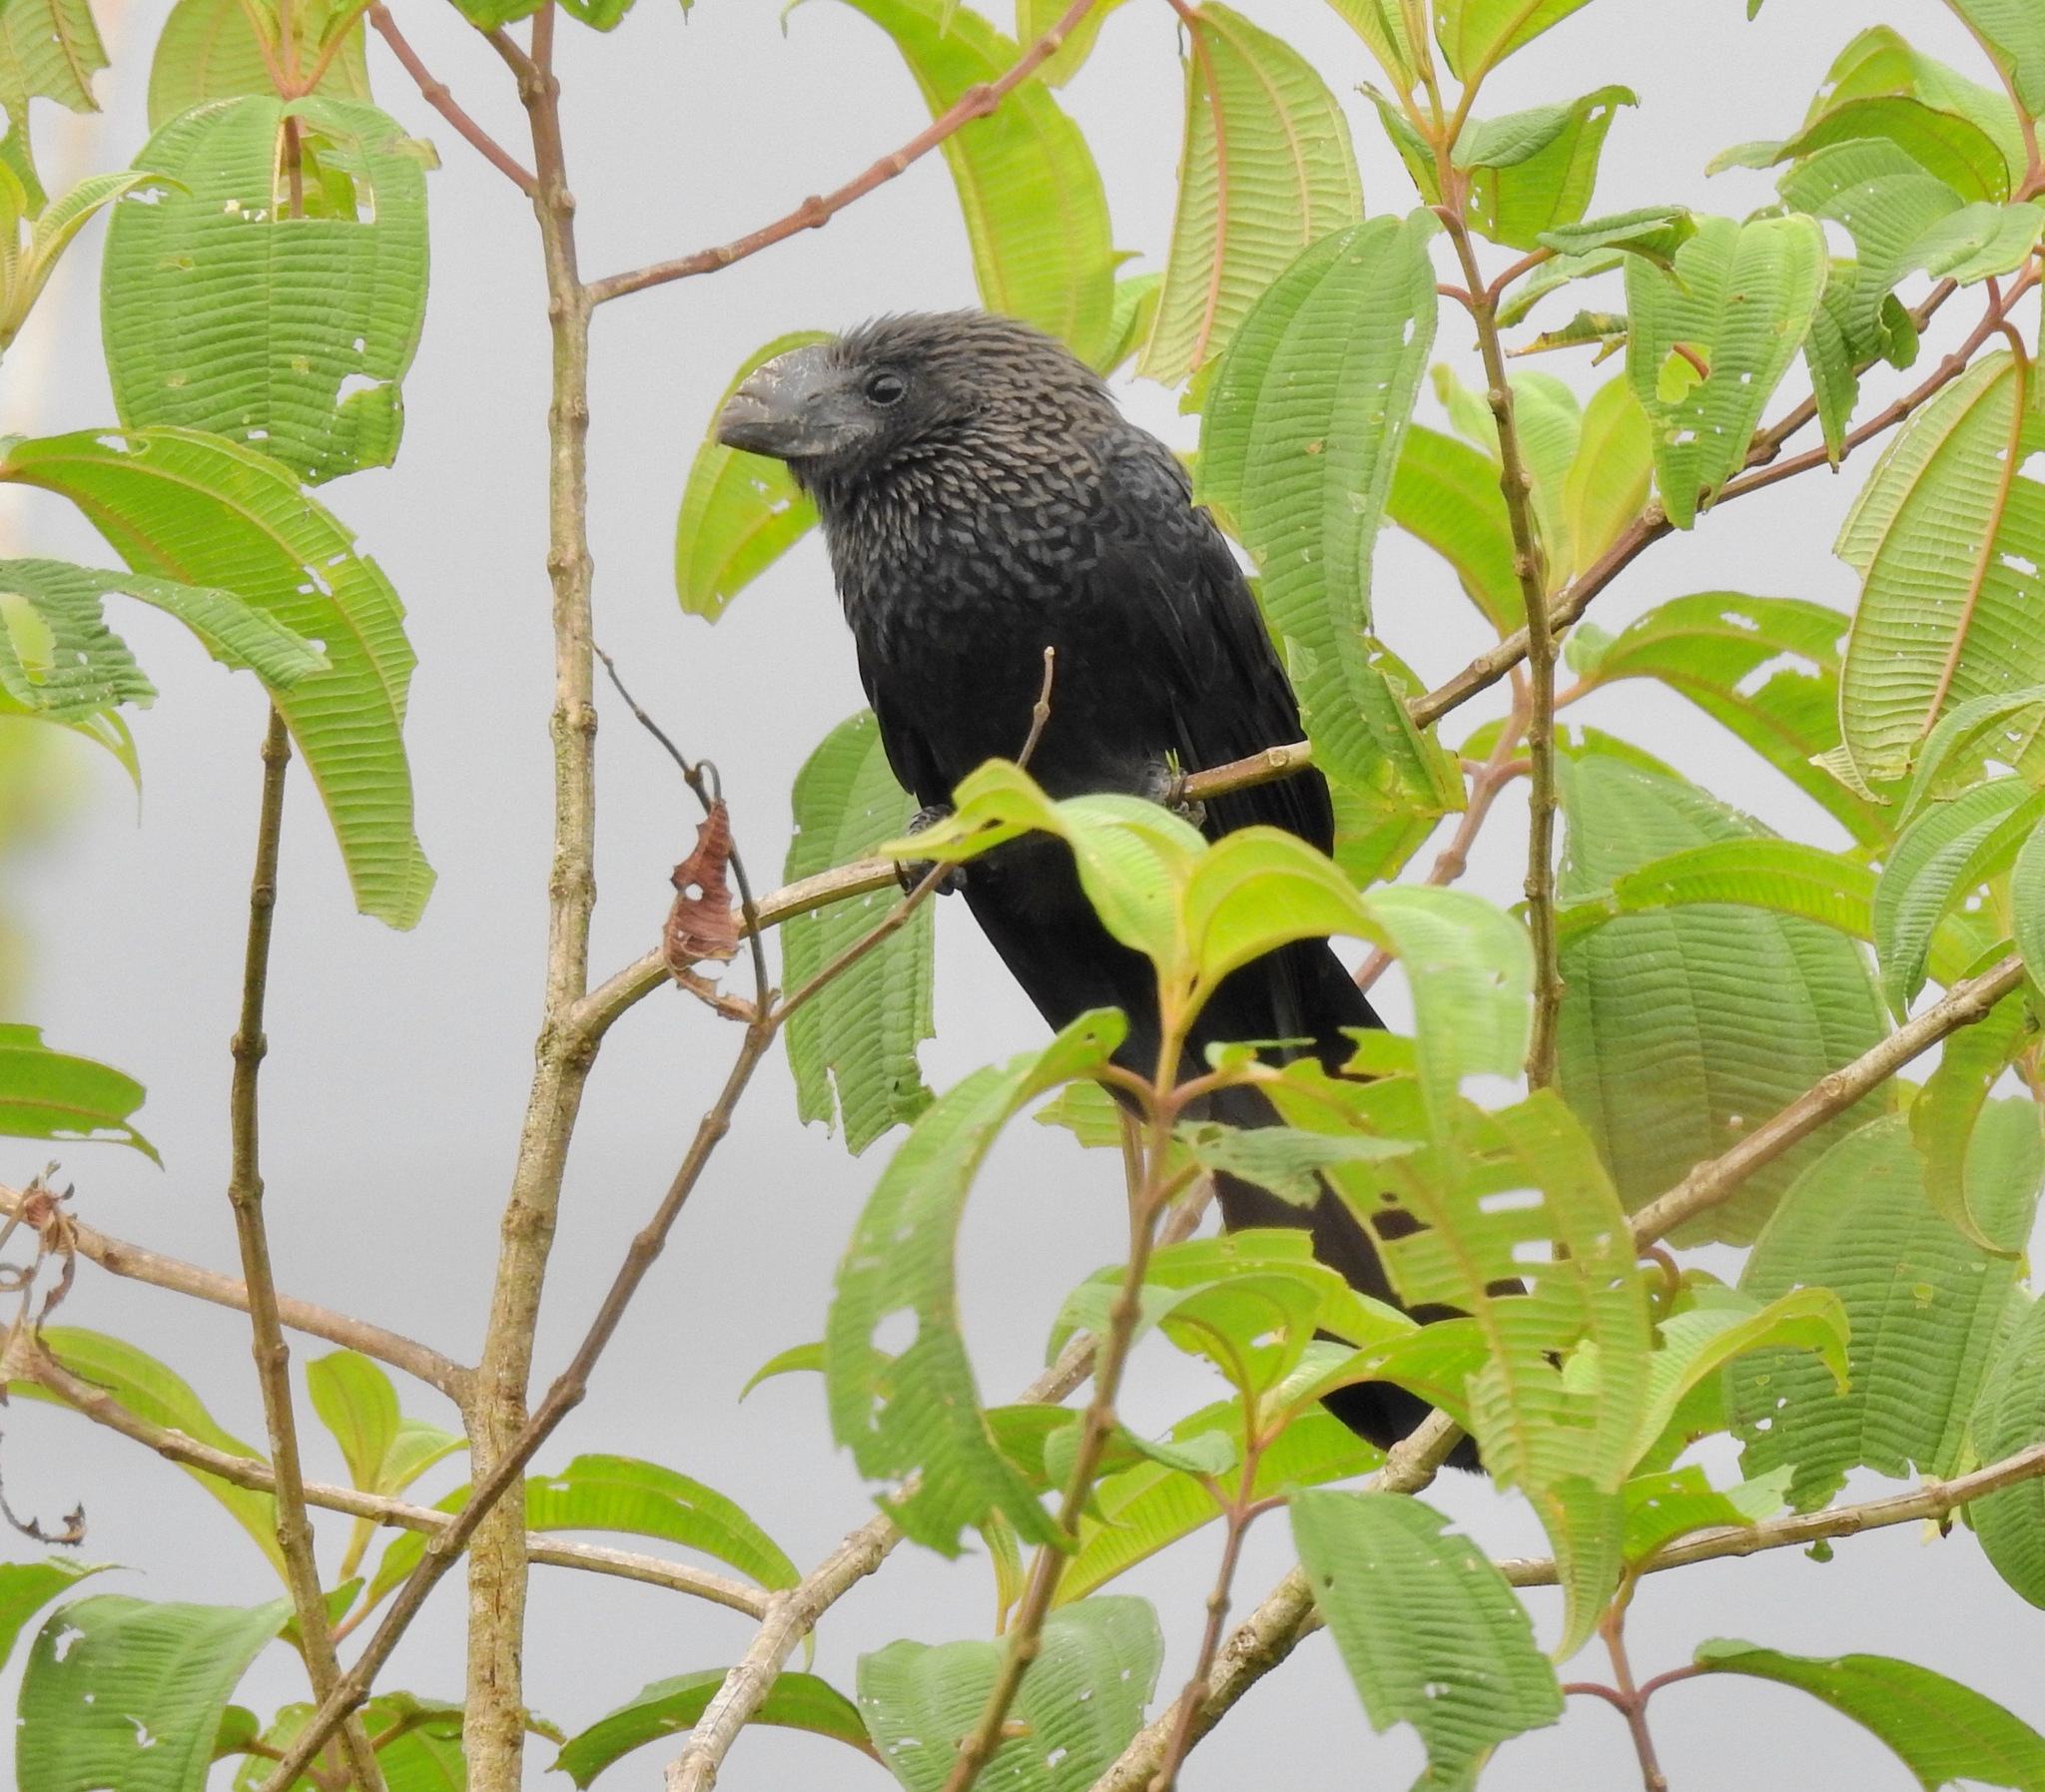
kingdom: Animalia
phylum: Chordata
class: Aves
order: Cuculiformes
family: Cuculidae
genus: Crotophaga
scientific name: Crotophaga ani
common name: Smooth-billed ani
